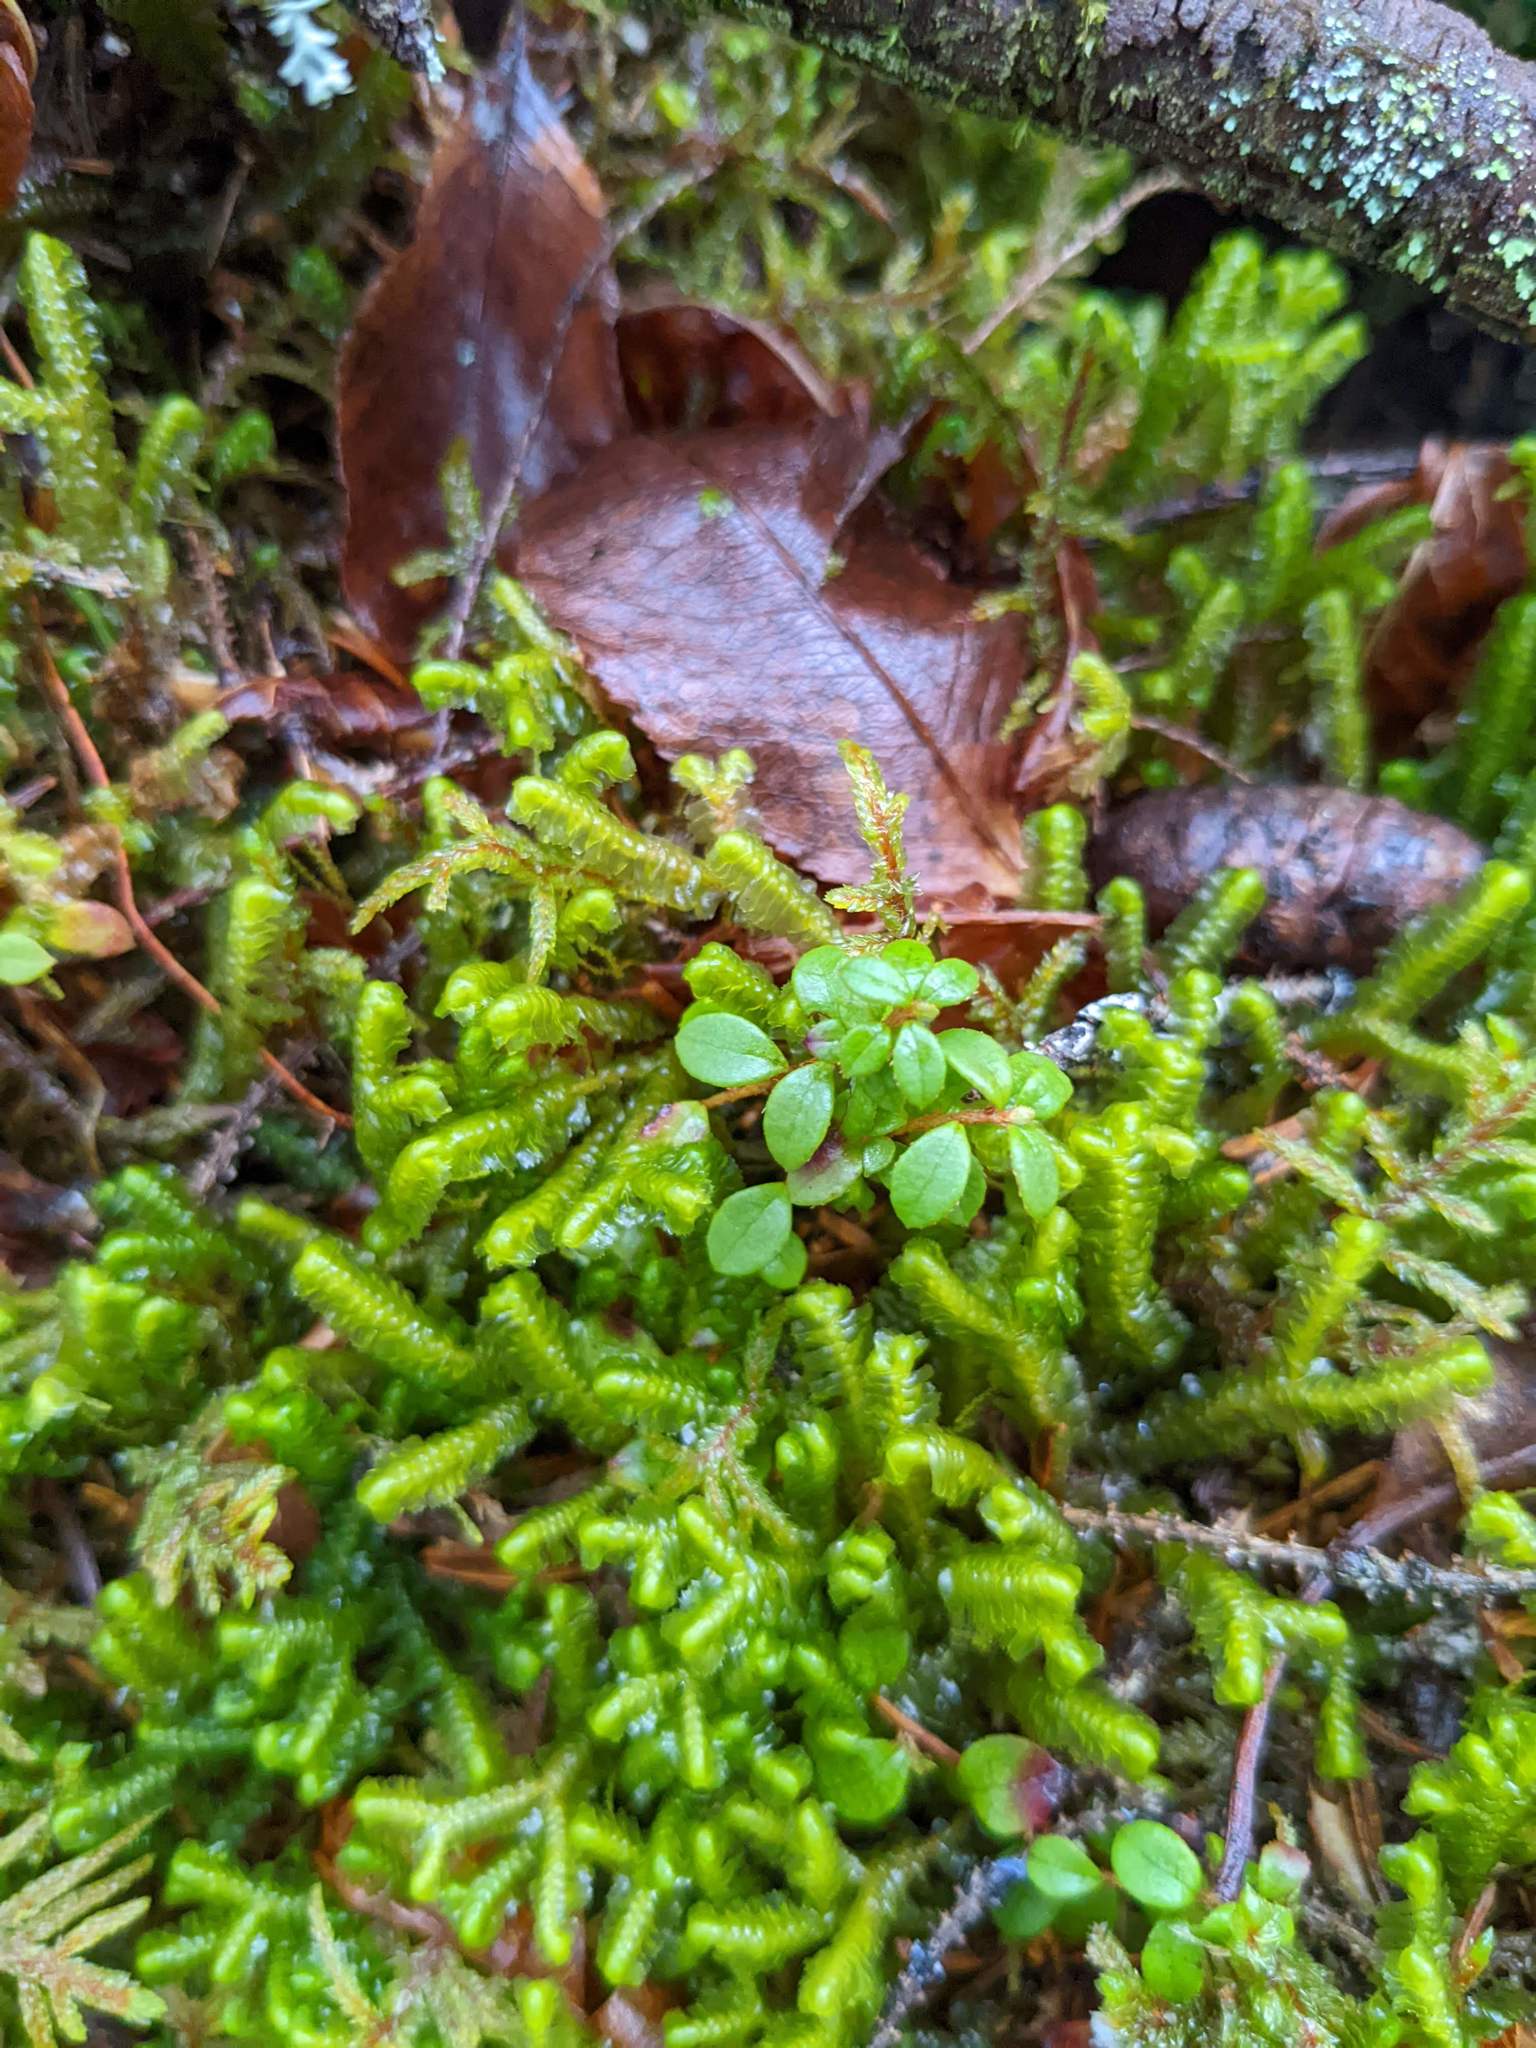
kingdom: Plantae
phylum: Tracheophyta
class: Magnoliopsida
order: Ericales
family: Ericaceae
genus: Gaultheria
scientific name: Gaultheria hispidula
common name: Cancer wintergreen
